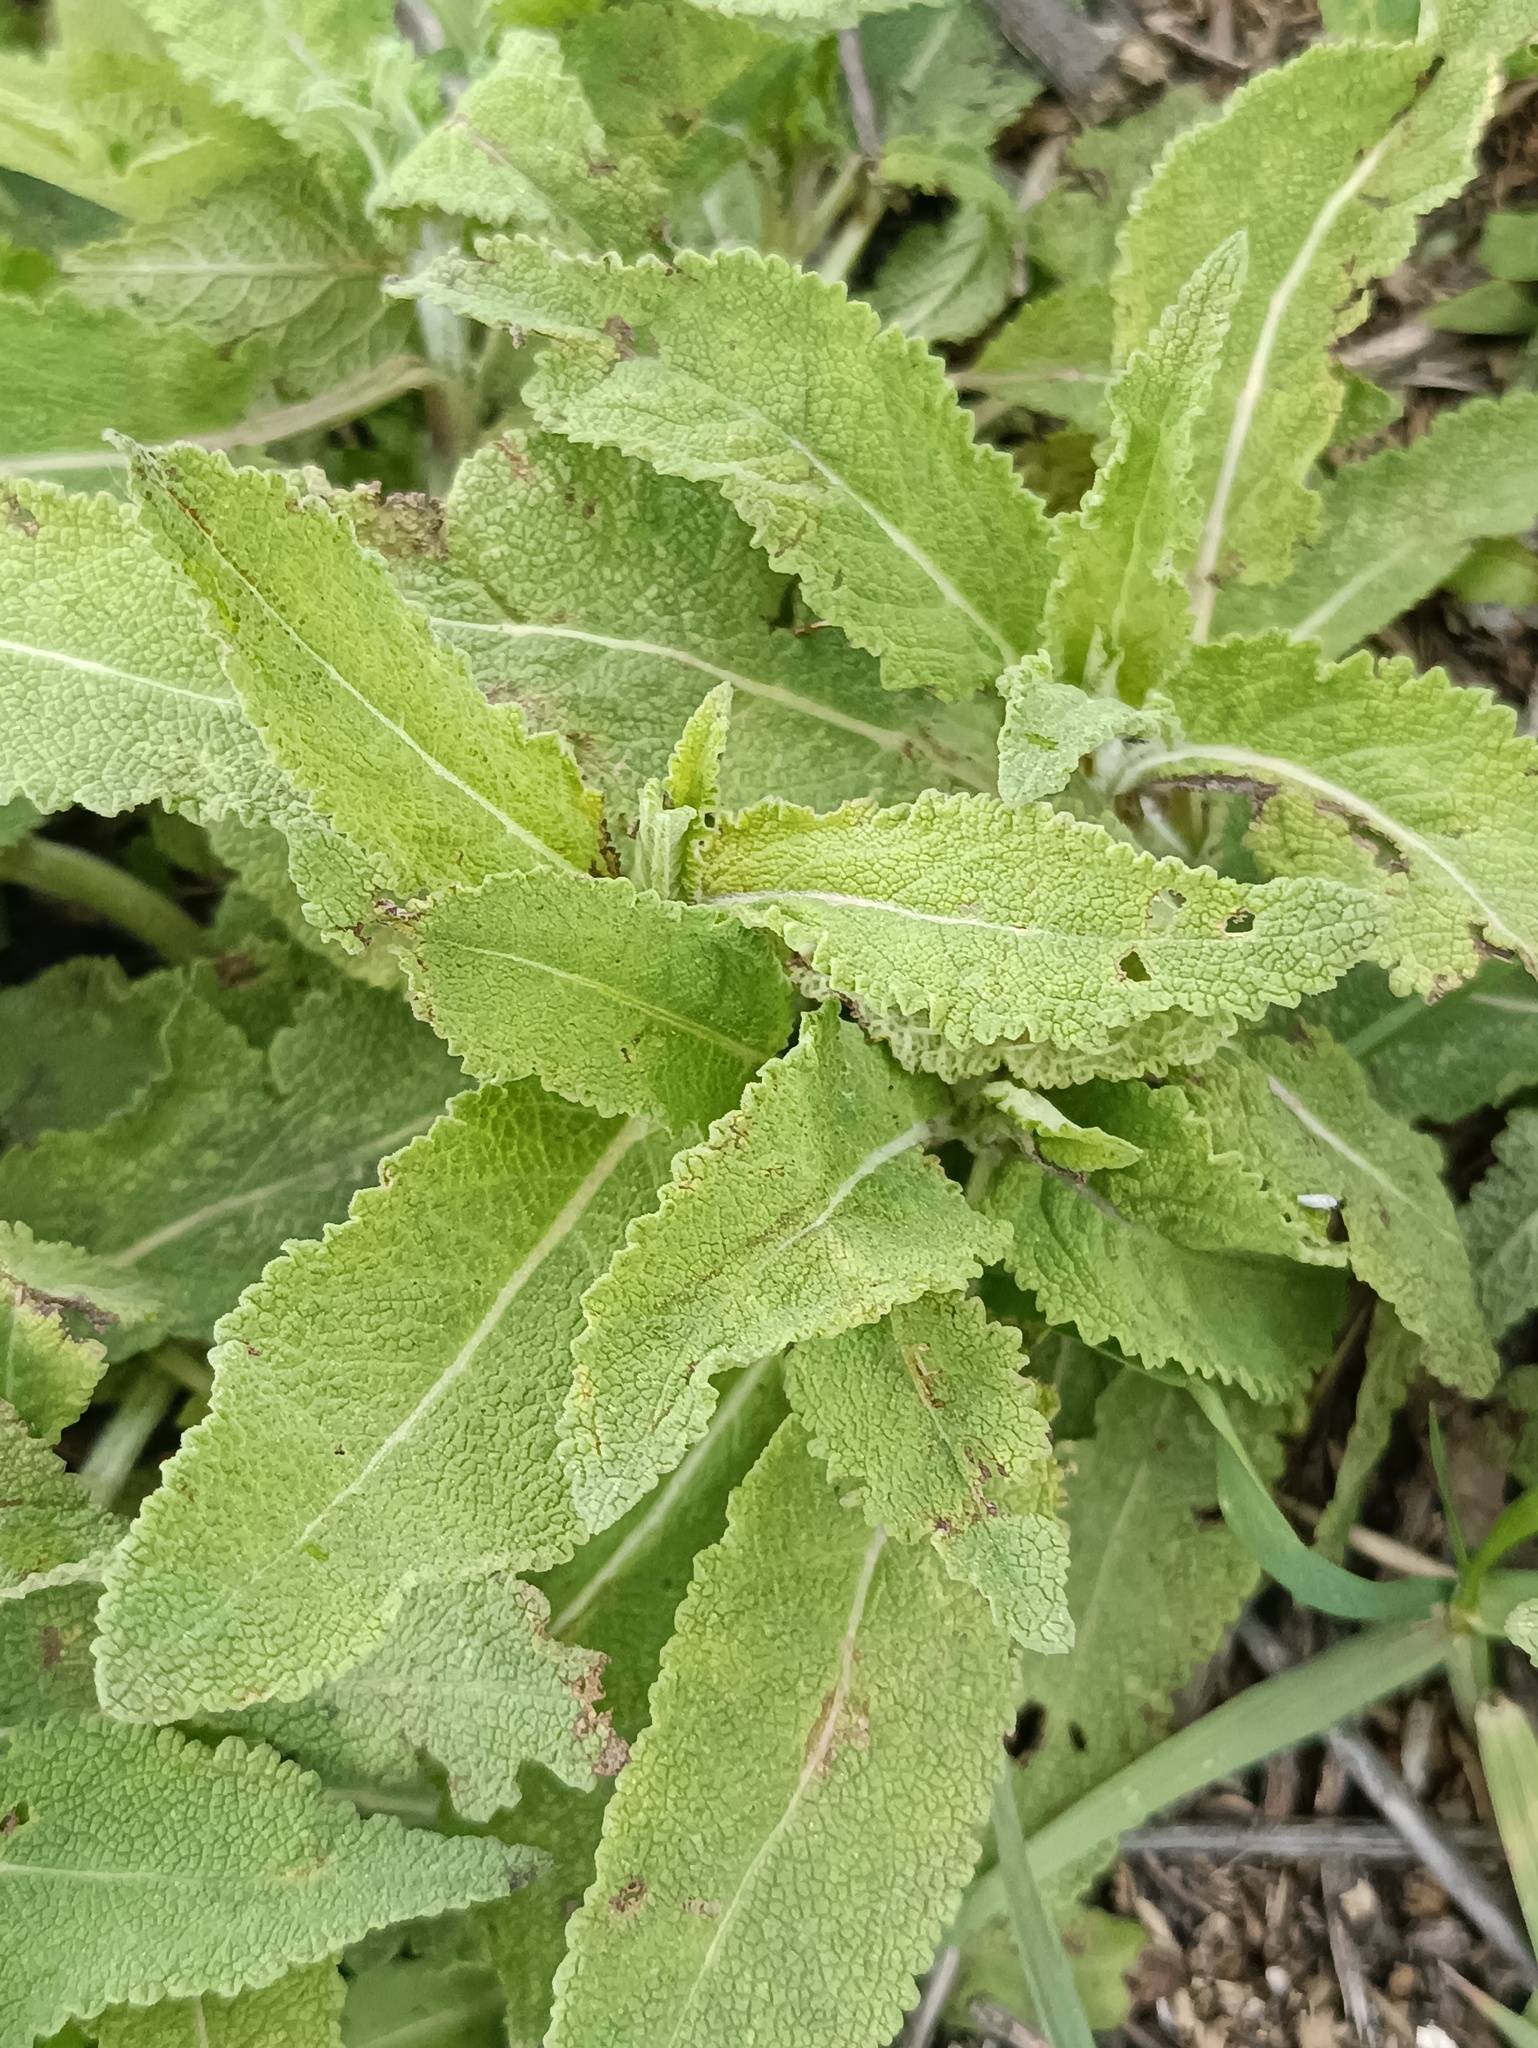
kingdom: Plantae
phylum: Tracheophyta
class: Magnoliopsida
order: Lamiales
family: Lamiaceae
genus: Salvia
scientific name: Salvia nemorosa
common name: Balkan clary
